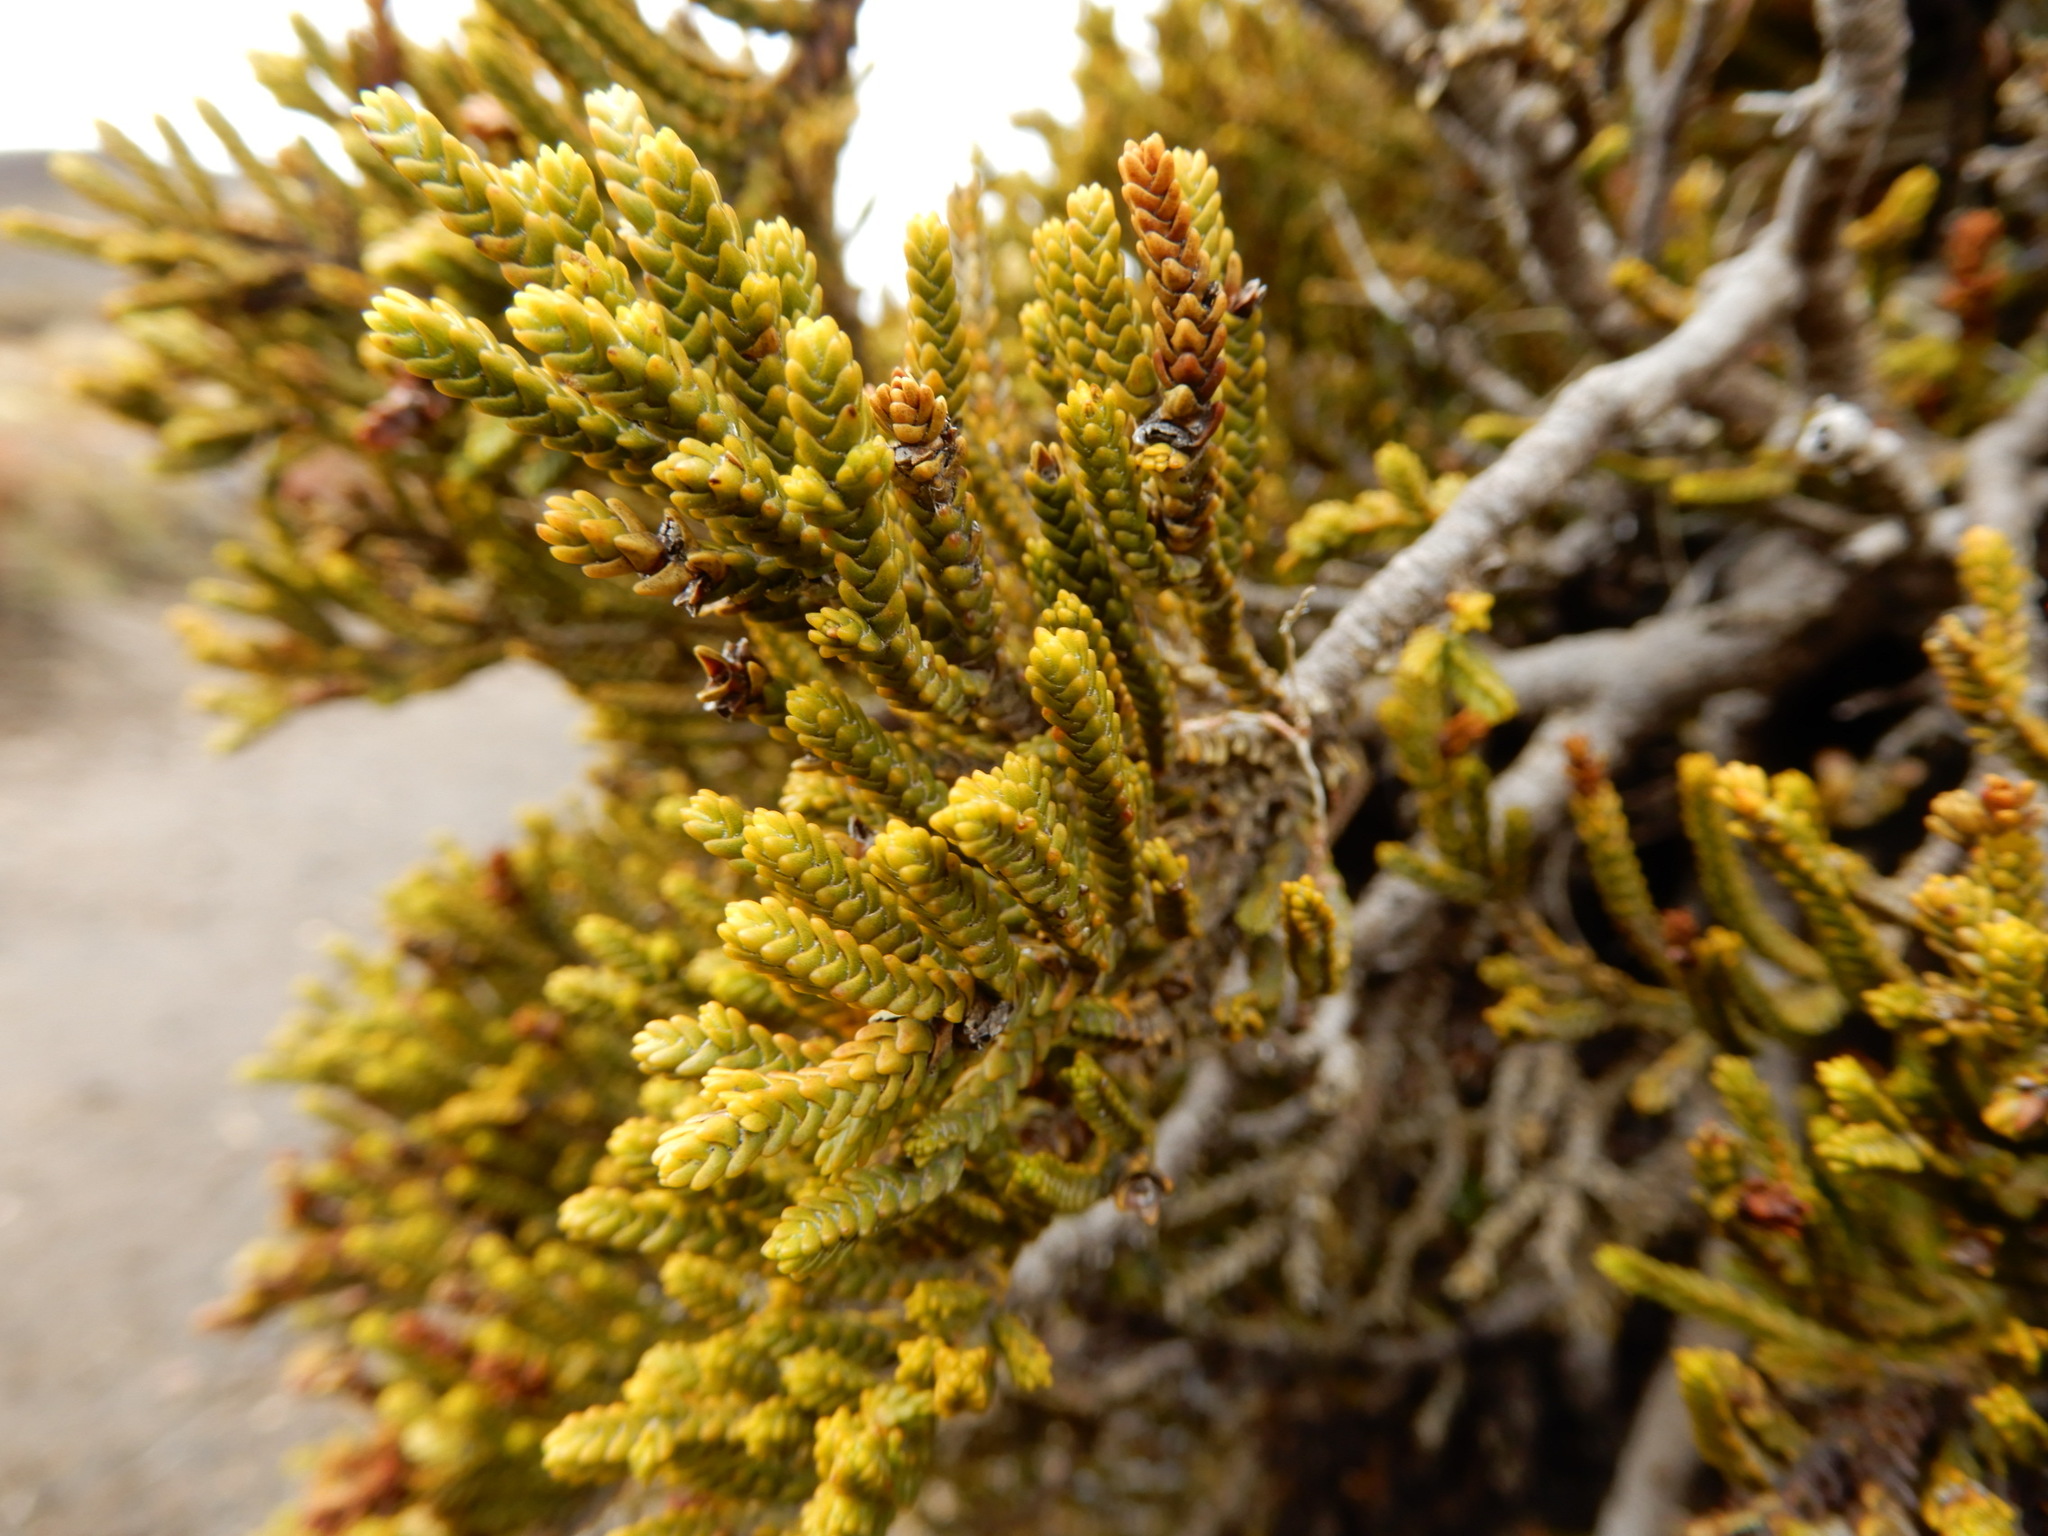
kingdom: Plantae
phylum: Tracheophyta
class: Magnoliopsida
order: Lamiales
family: Plantaginaceae
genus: Veronica
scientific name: Veronica tetragona
